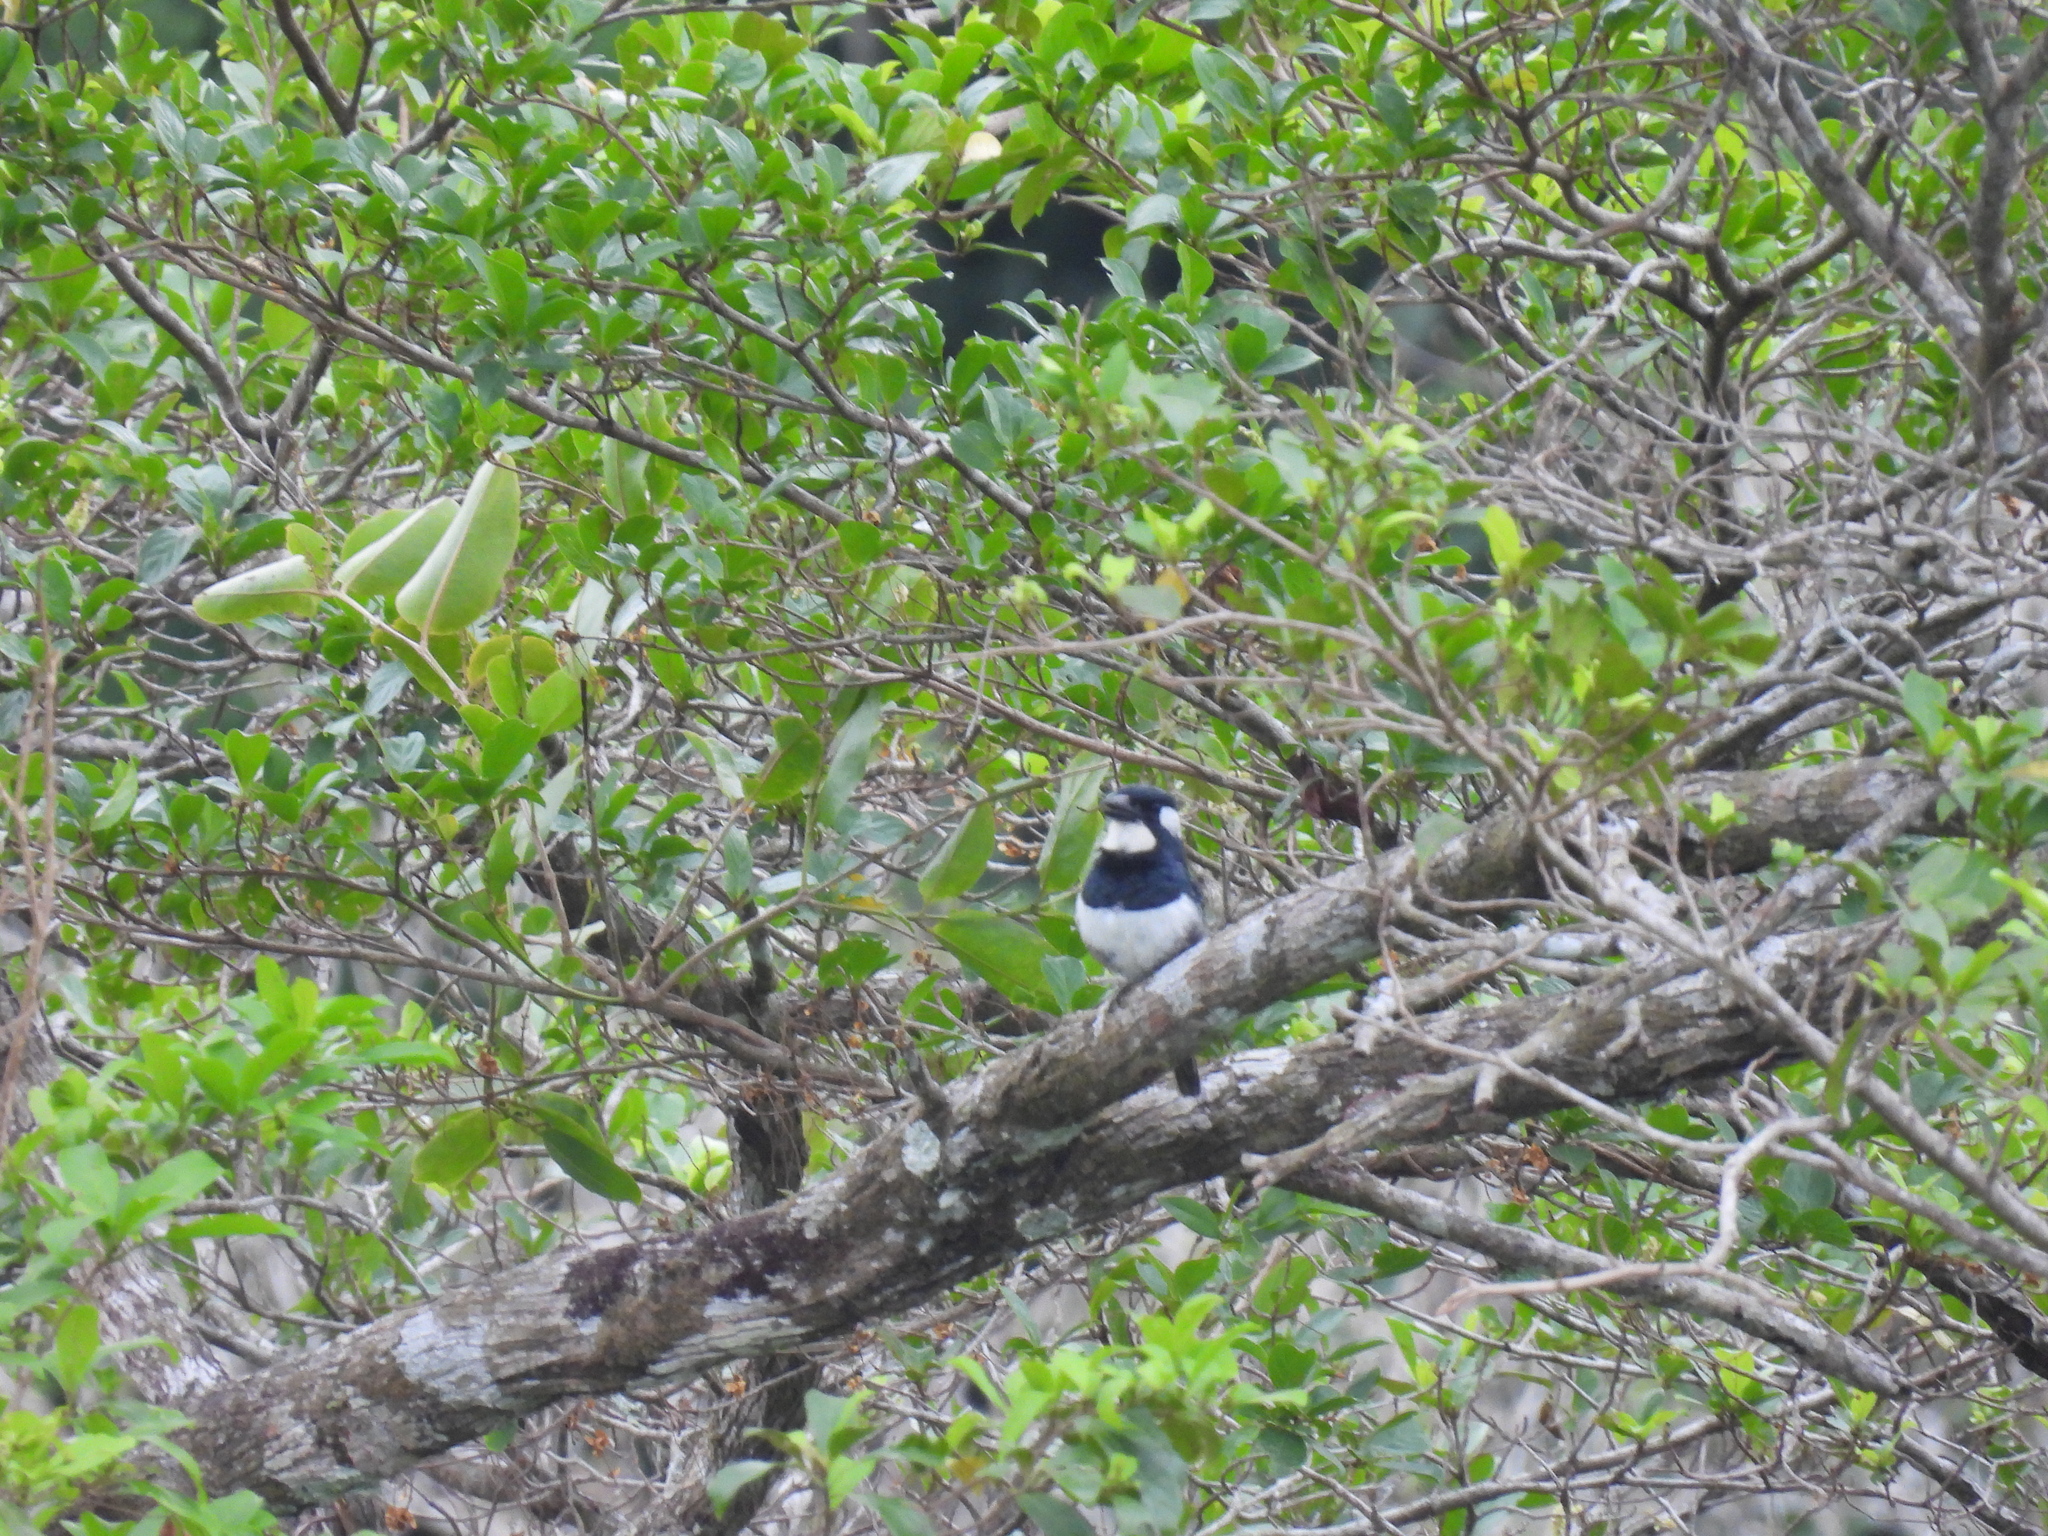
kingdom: Animalia
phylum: Chordata
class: Aves
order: Piciformes
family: Bucconidae
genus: Notharchus
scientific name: Notharchus pectoralis
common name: Black-breasted puffbird
